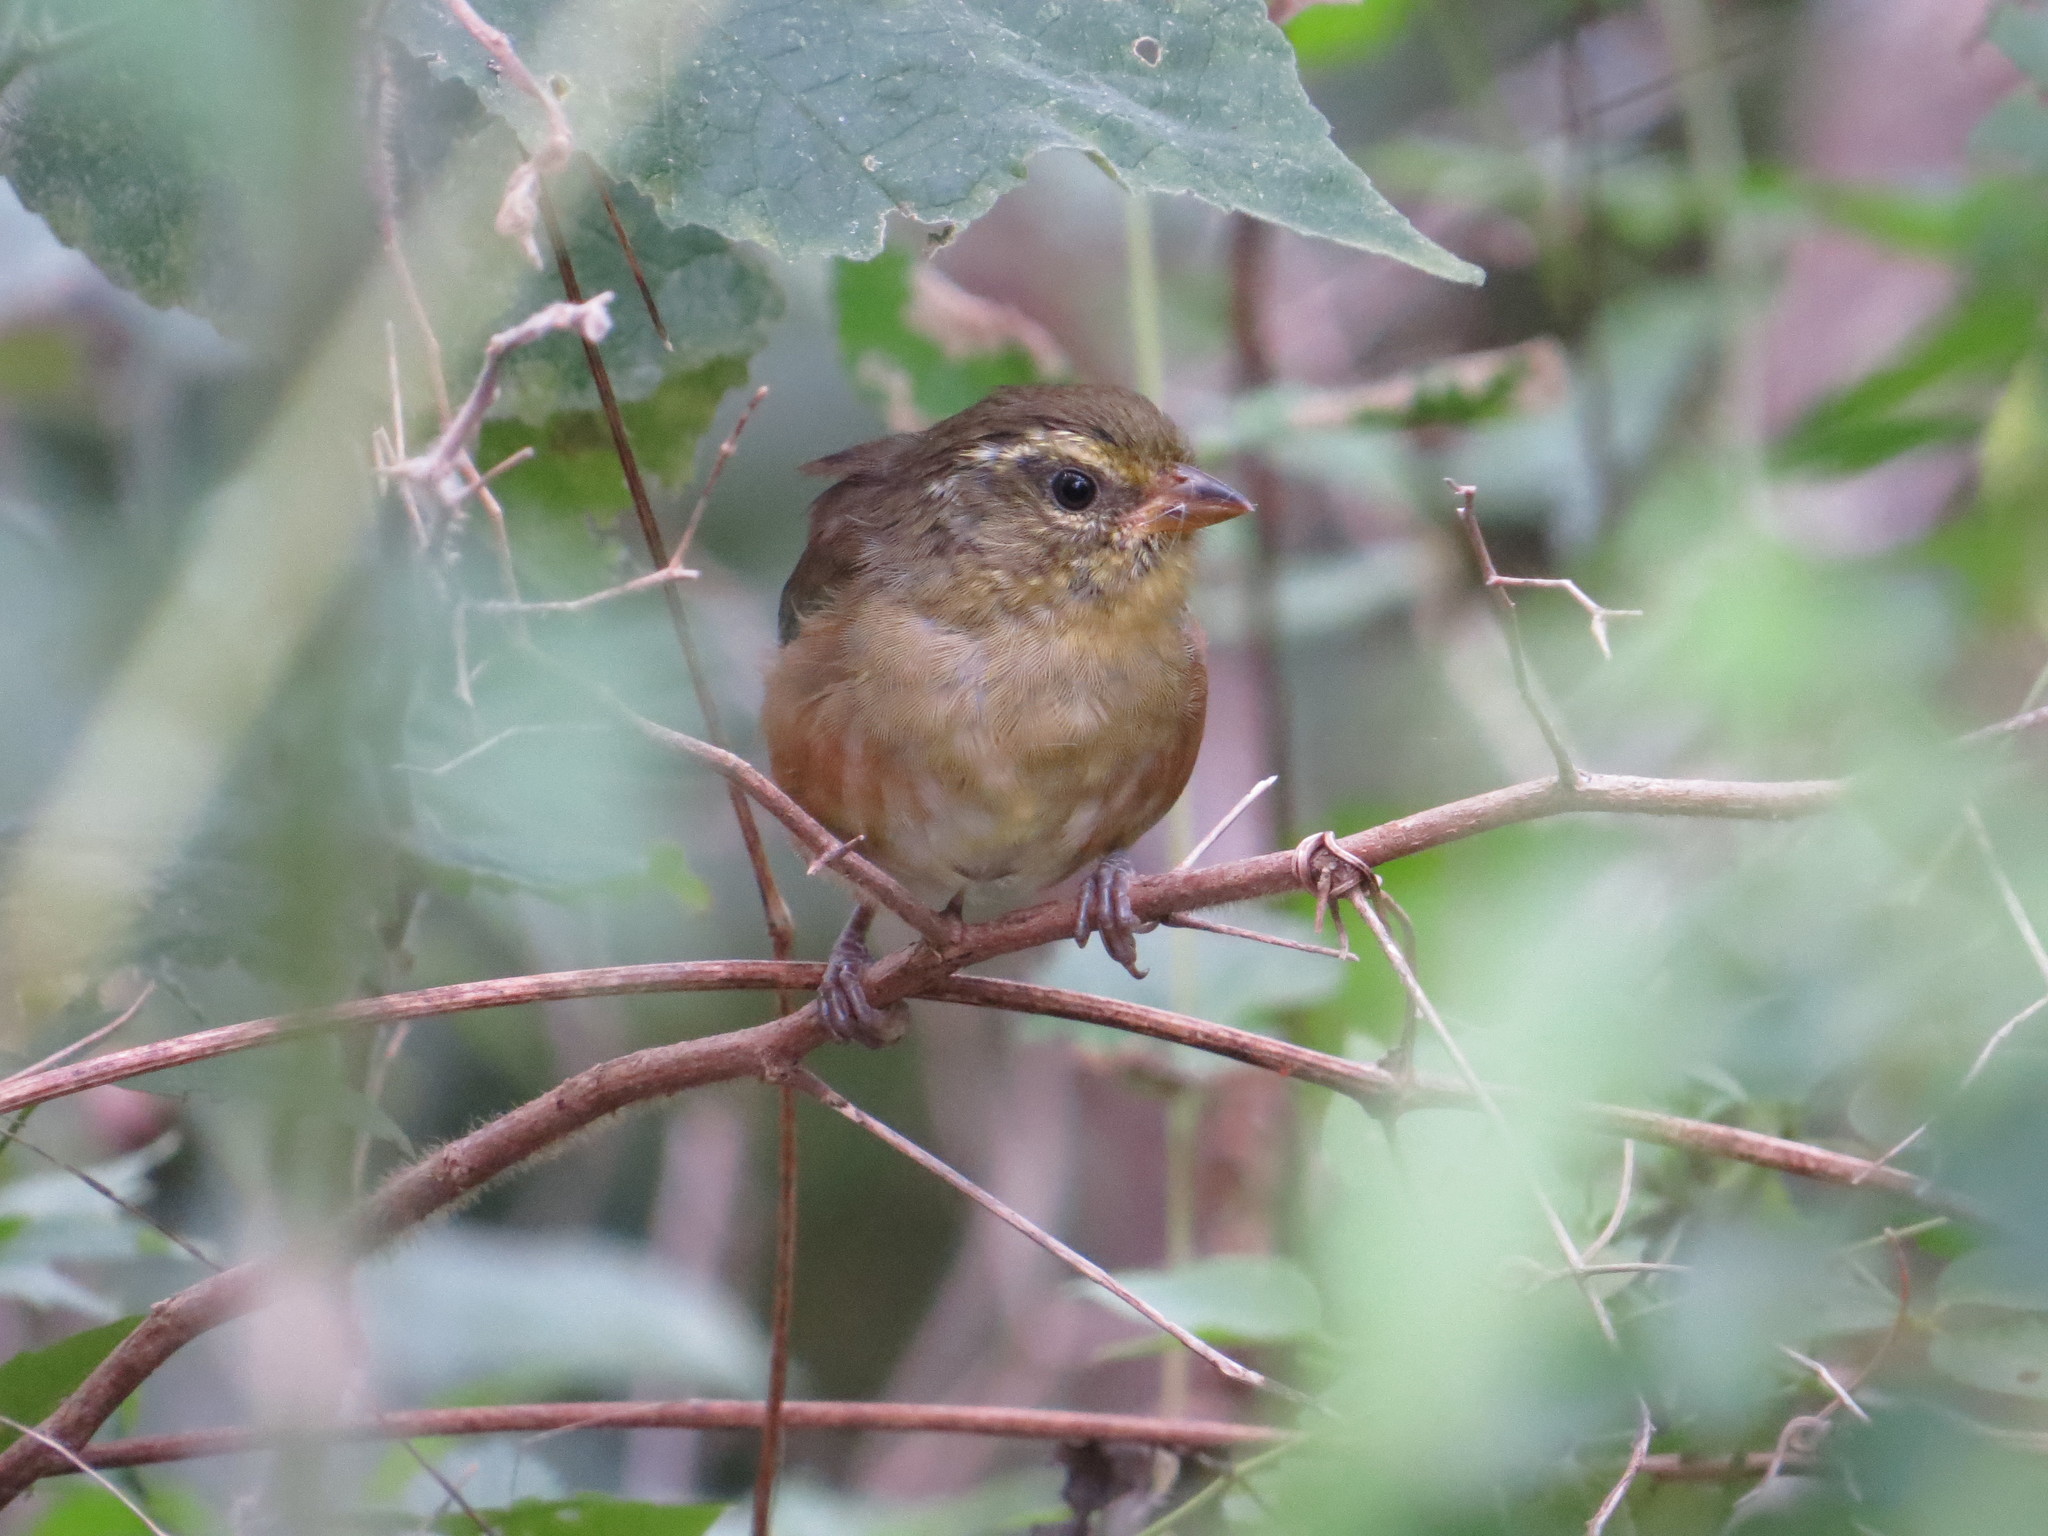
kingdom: Animalia
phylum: Chordata
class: Aves
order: Passeriformes
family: Thraupidae
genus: Microspingus
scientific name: Microspingus cabanisi
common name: Gray-throated warbling-finch
